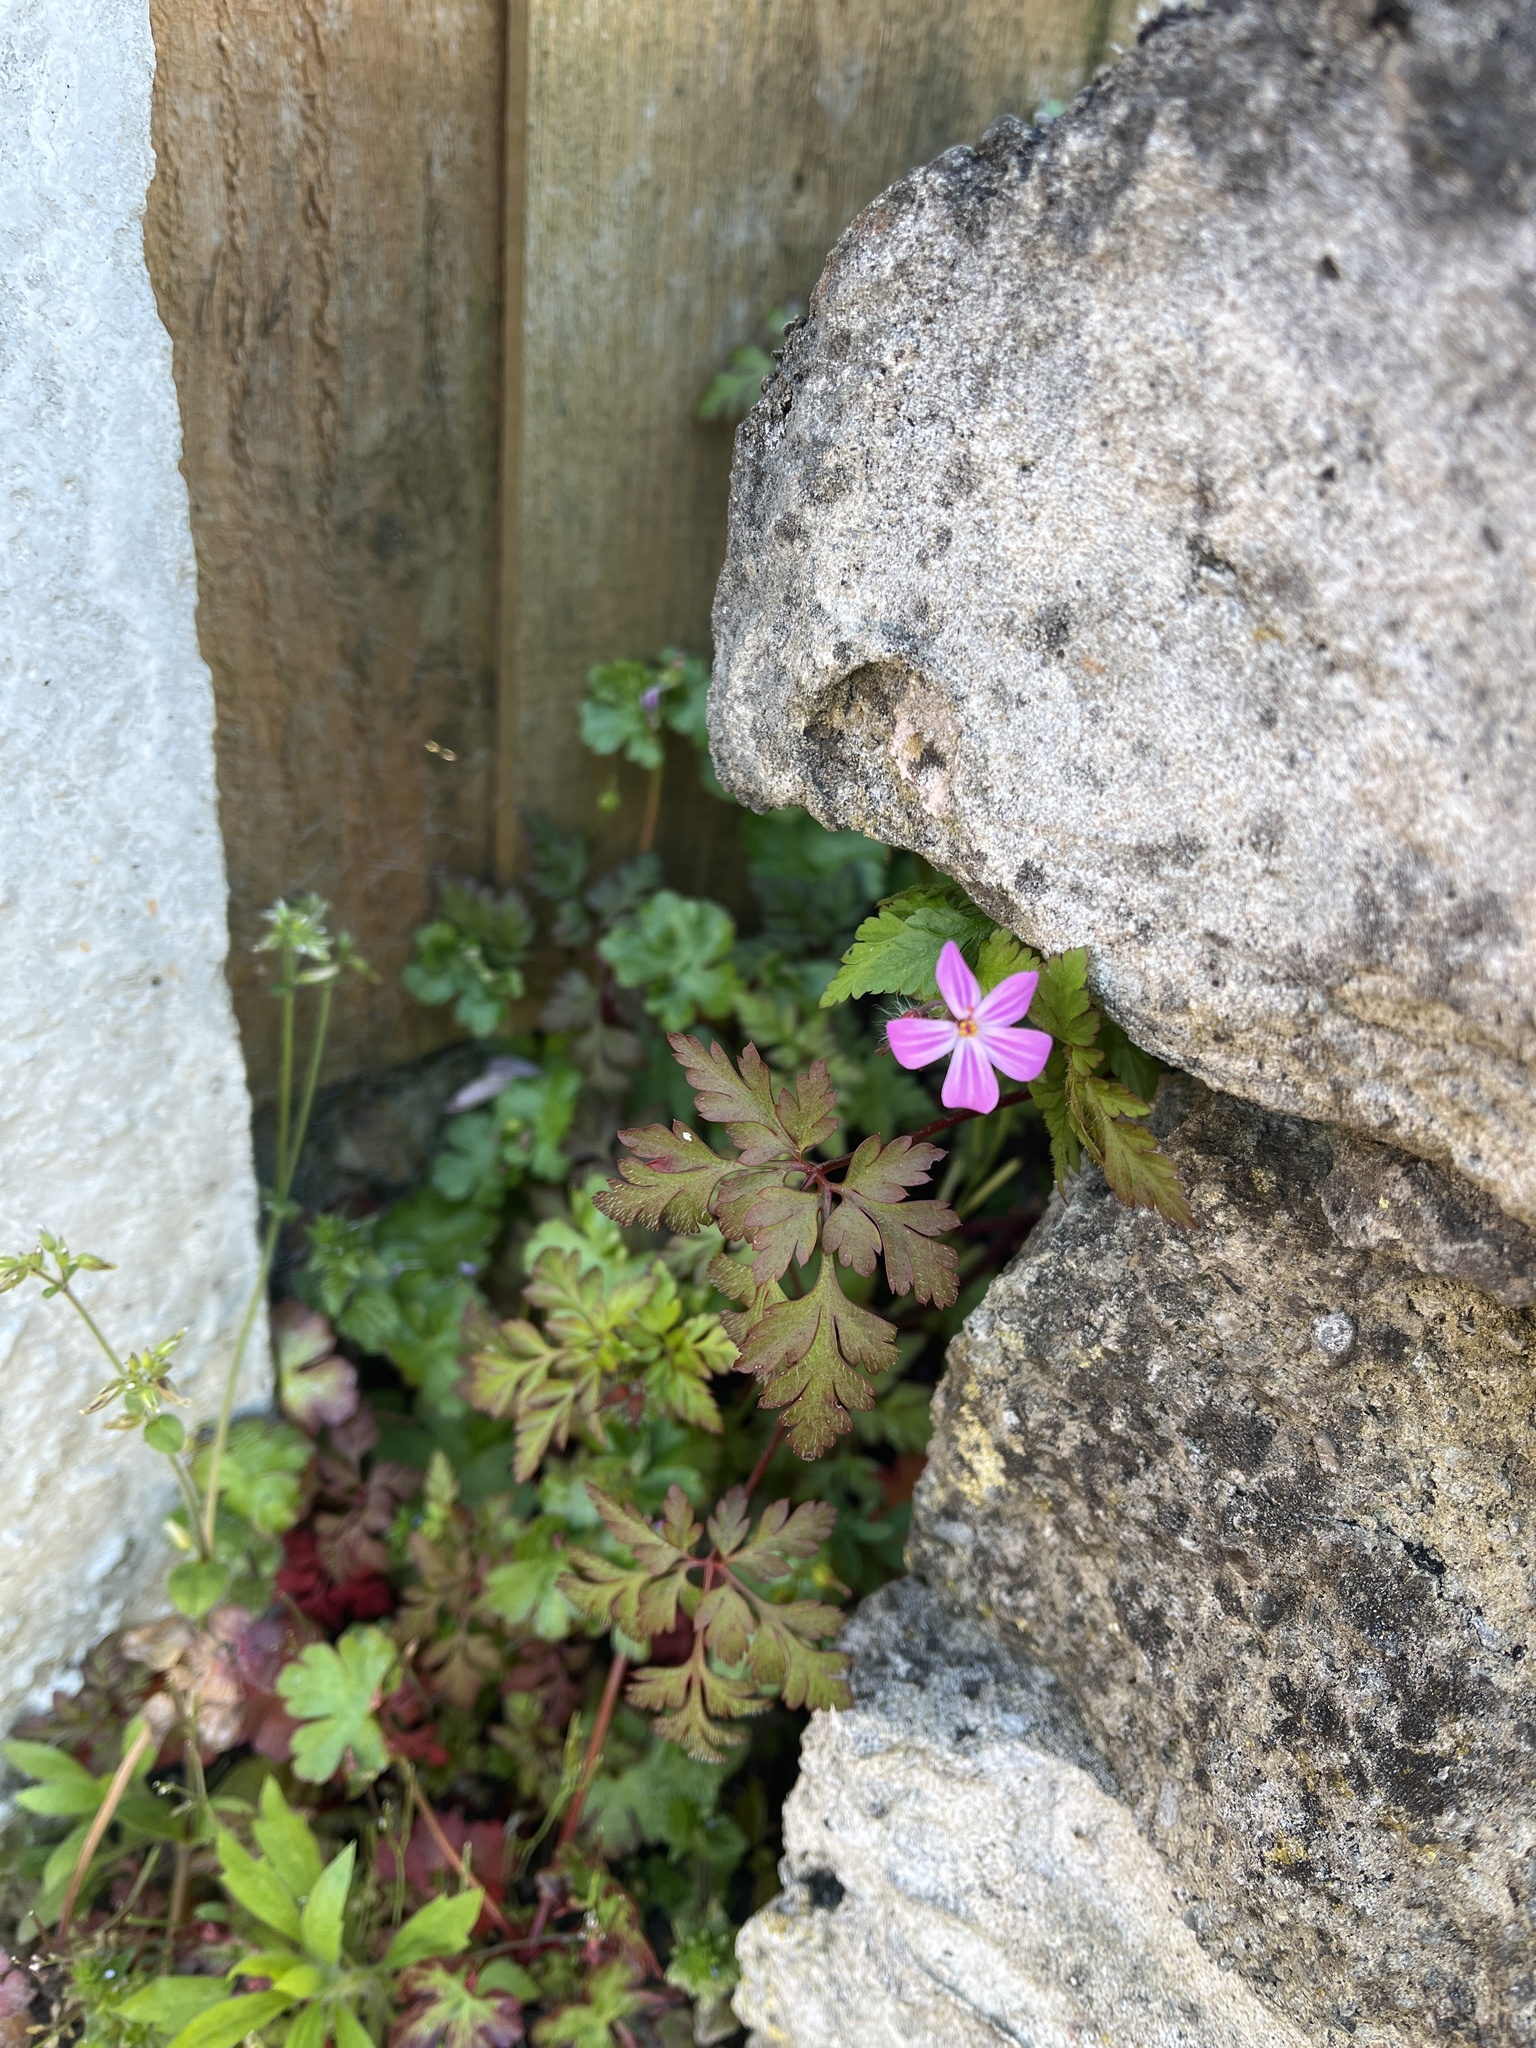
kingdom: Plantae
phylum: Tracheophyta
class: Magnoliopsida
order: Geraniales
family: Geraniaceae
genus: Geranium
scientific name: Geranium robertianum
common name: Herb-robert
